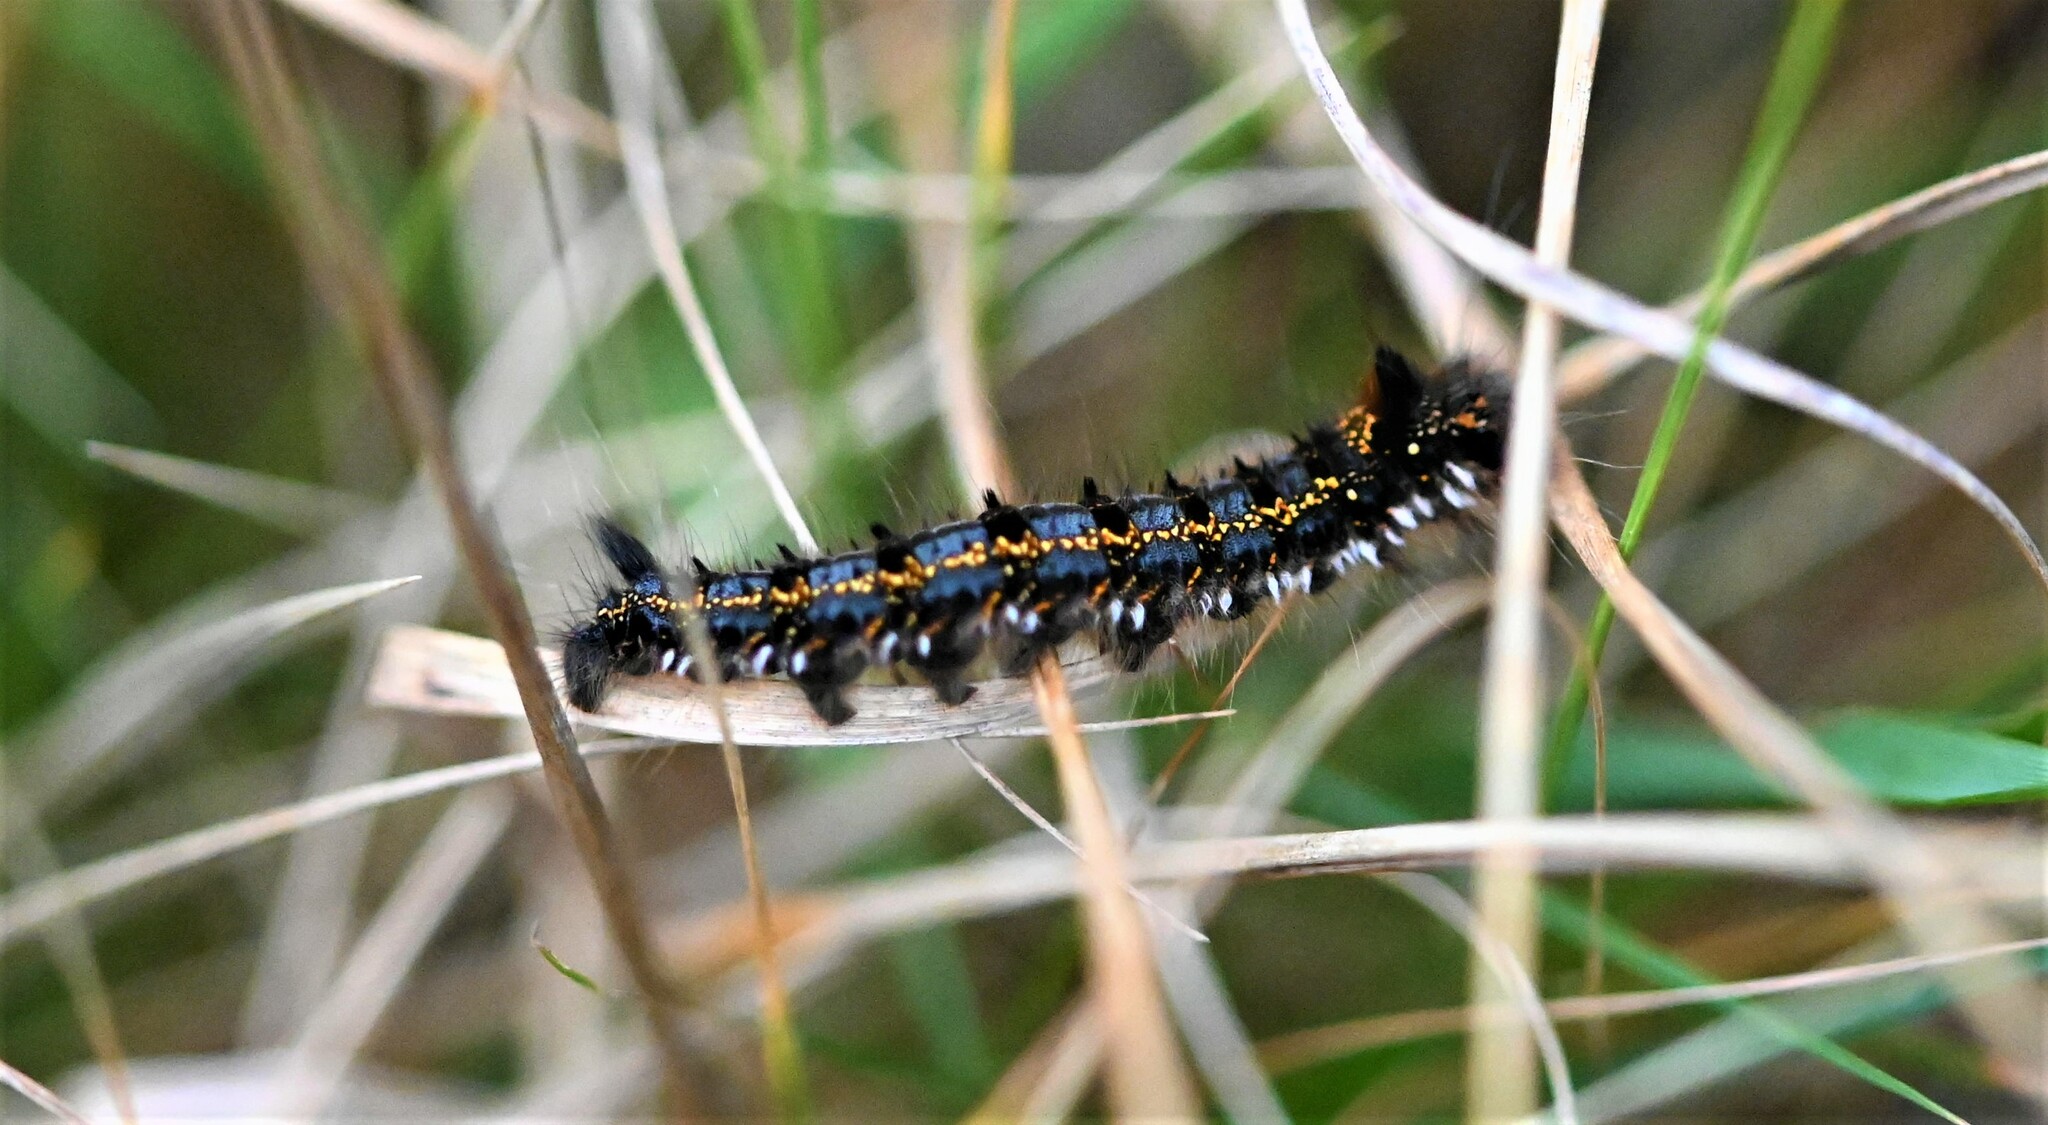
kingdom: Animalia
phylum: Arthropoda
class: Insecta
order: Lepidoptera
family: Lasiocampidae
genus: Euthrix
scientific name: Euthrix potatoria
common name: Drinker
